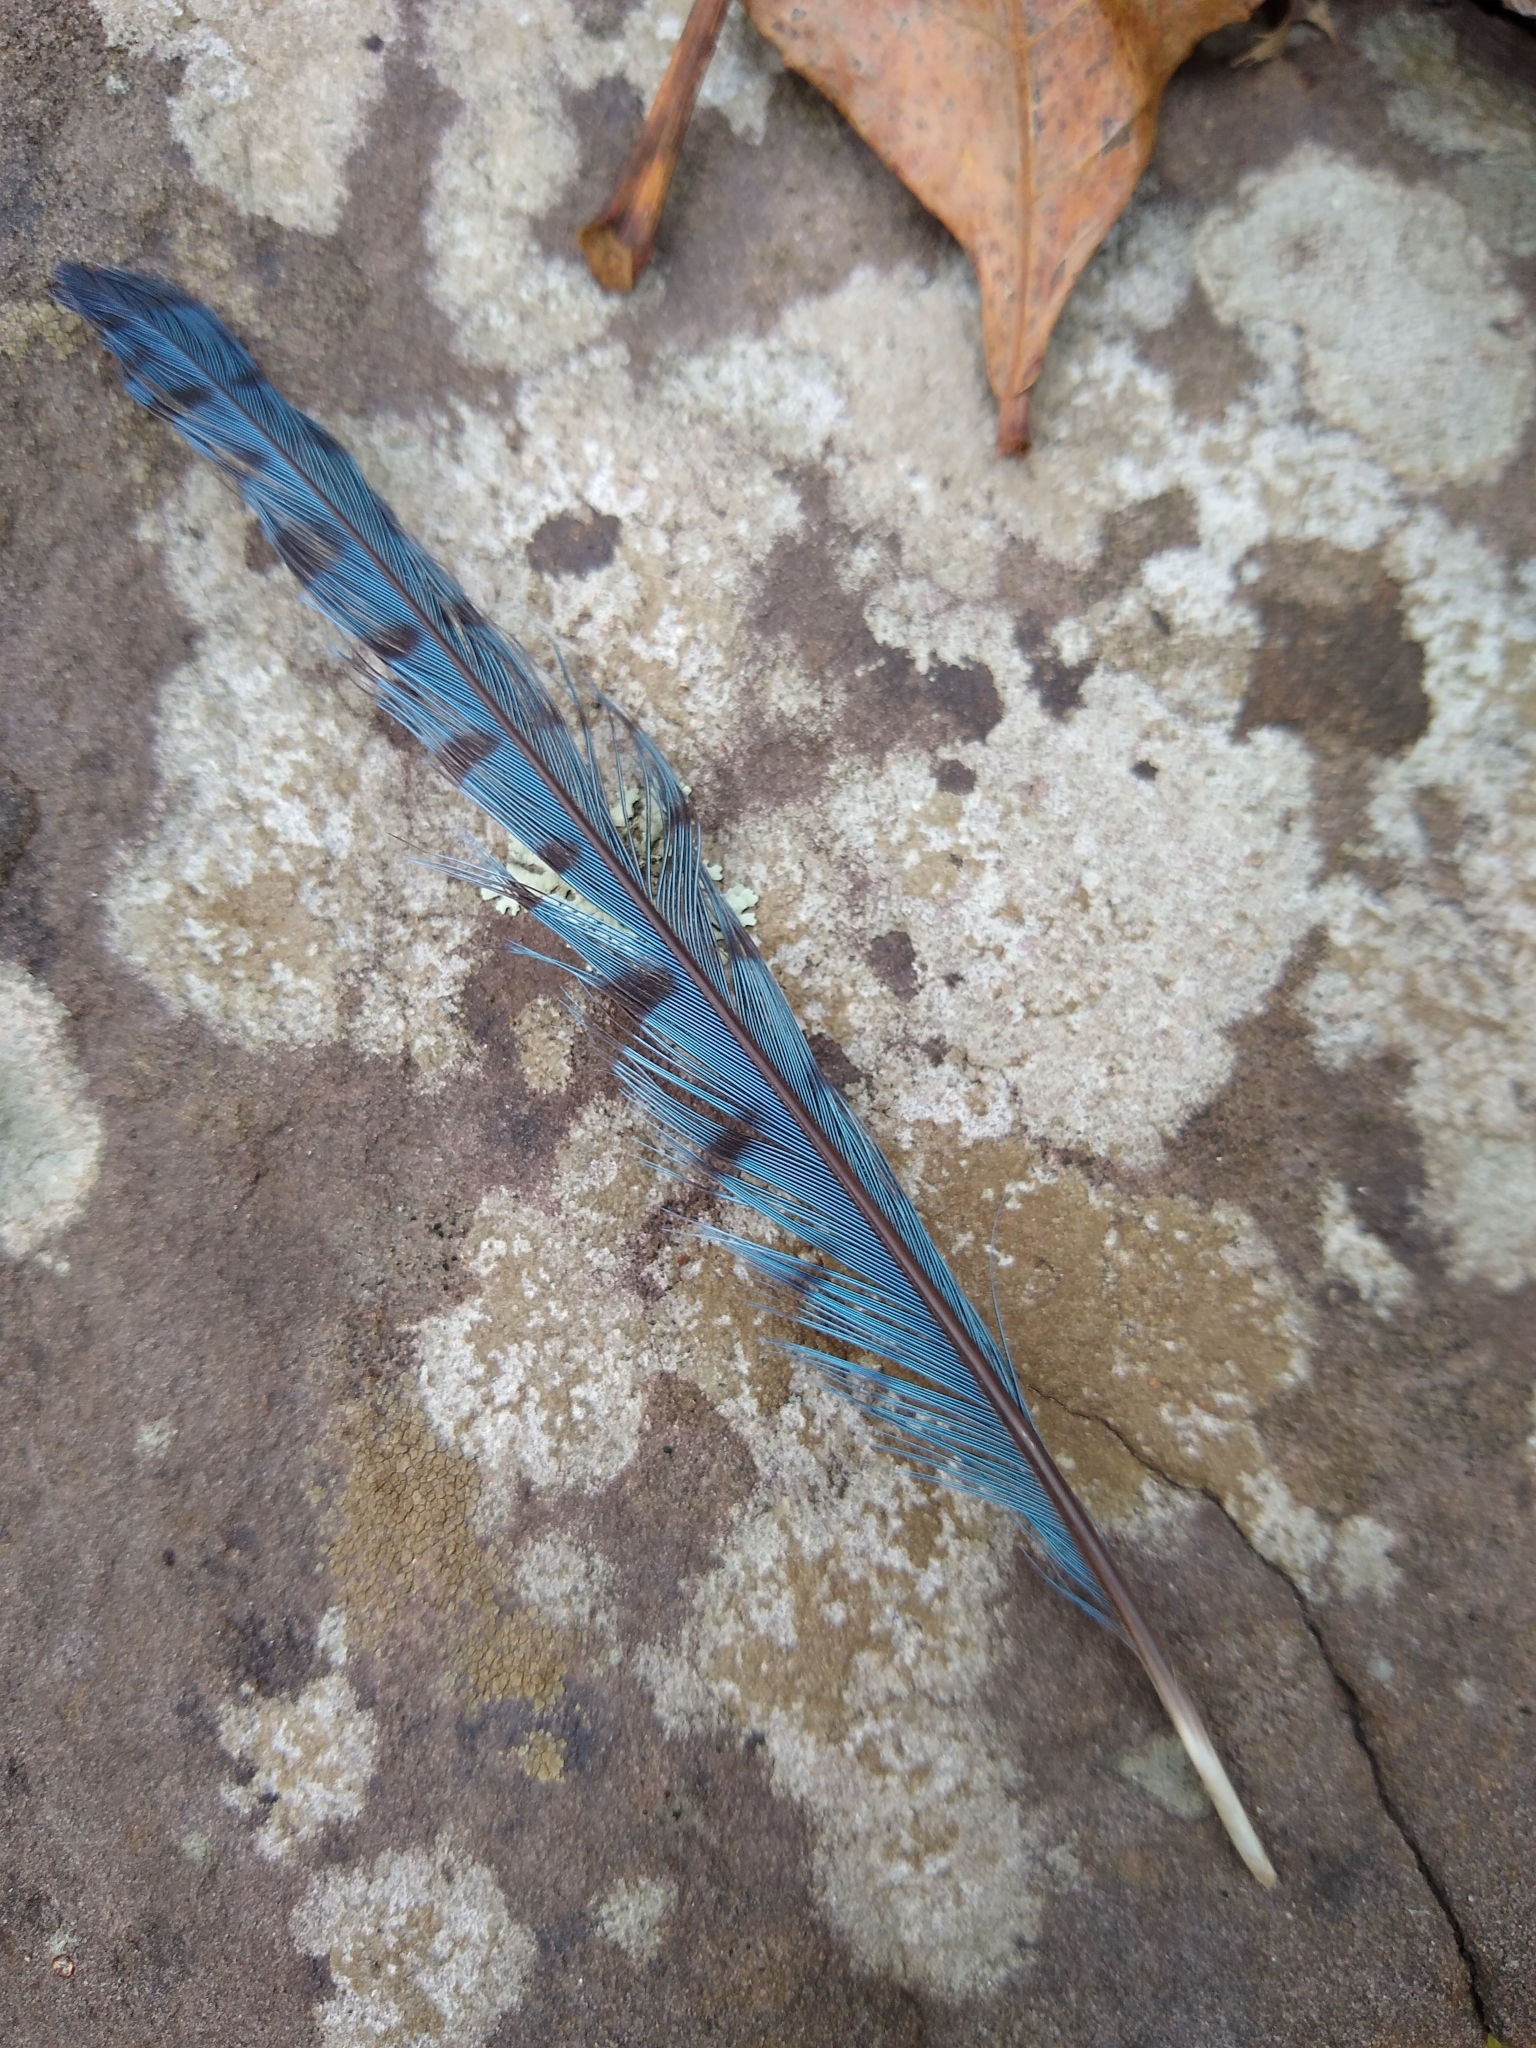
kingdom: Animalia
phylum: Chordata
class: Aves
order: Passeriformes
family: Corvidae
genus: Cyanocitta
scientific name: Cyanocitta cristata
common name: Blue jay
